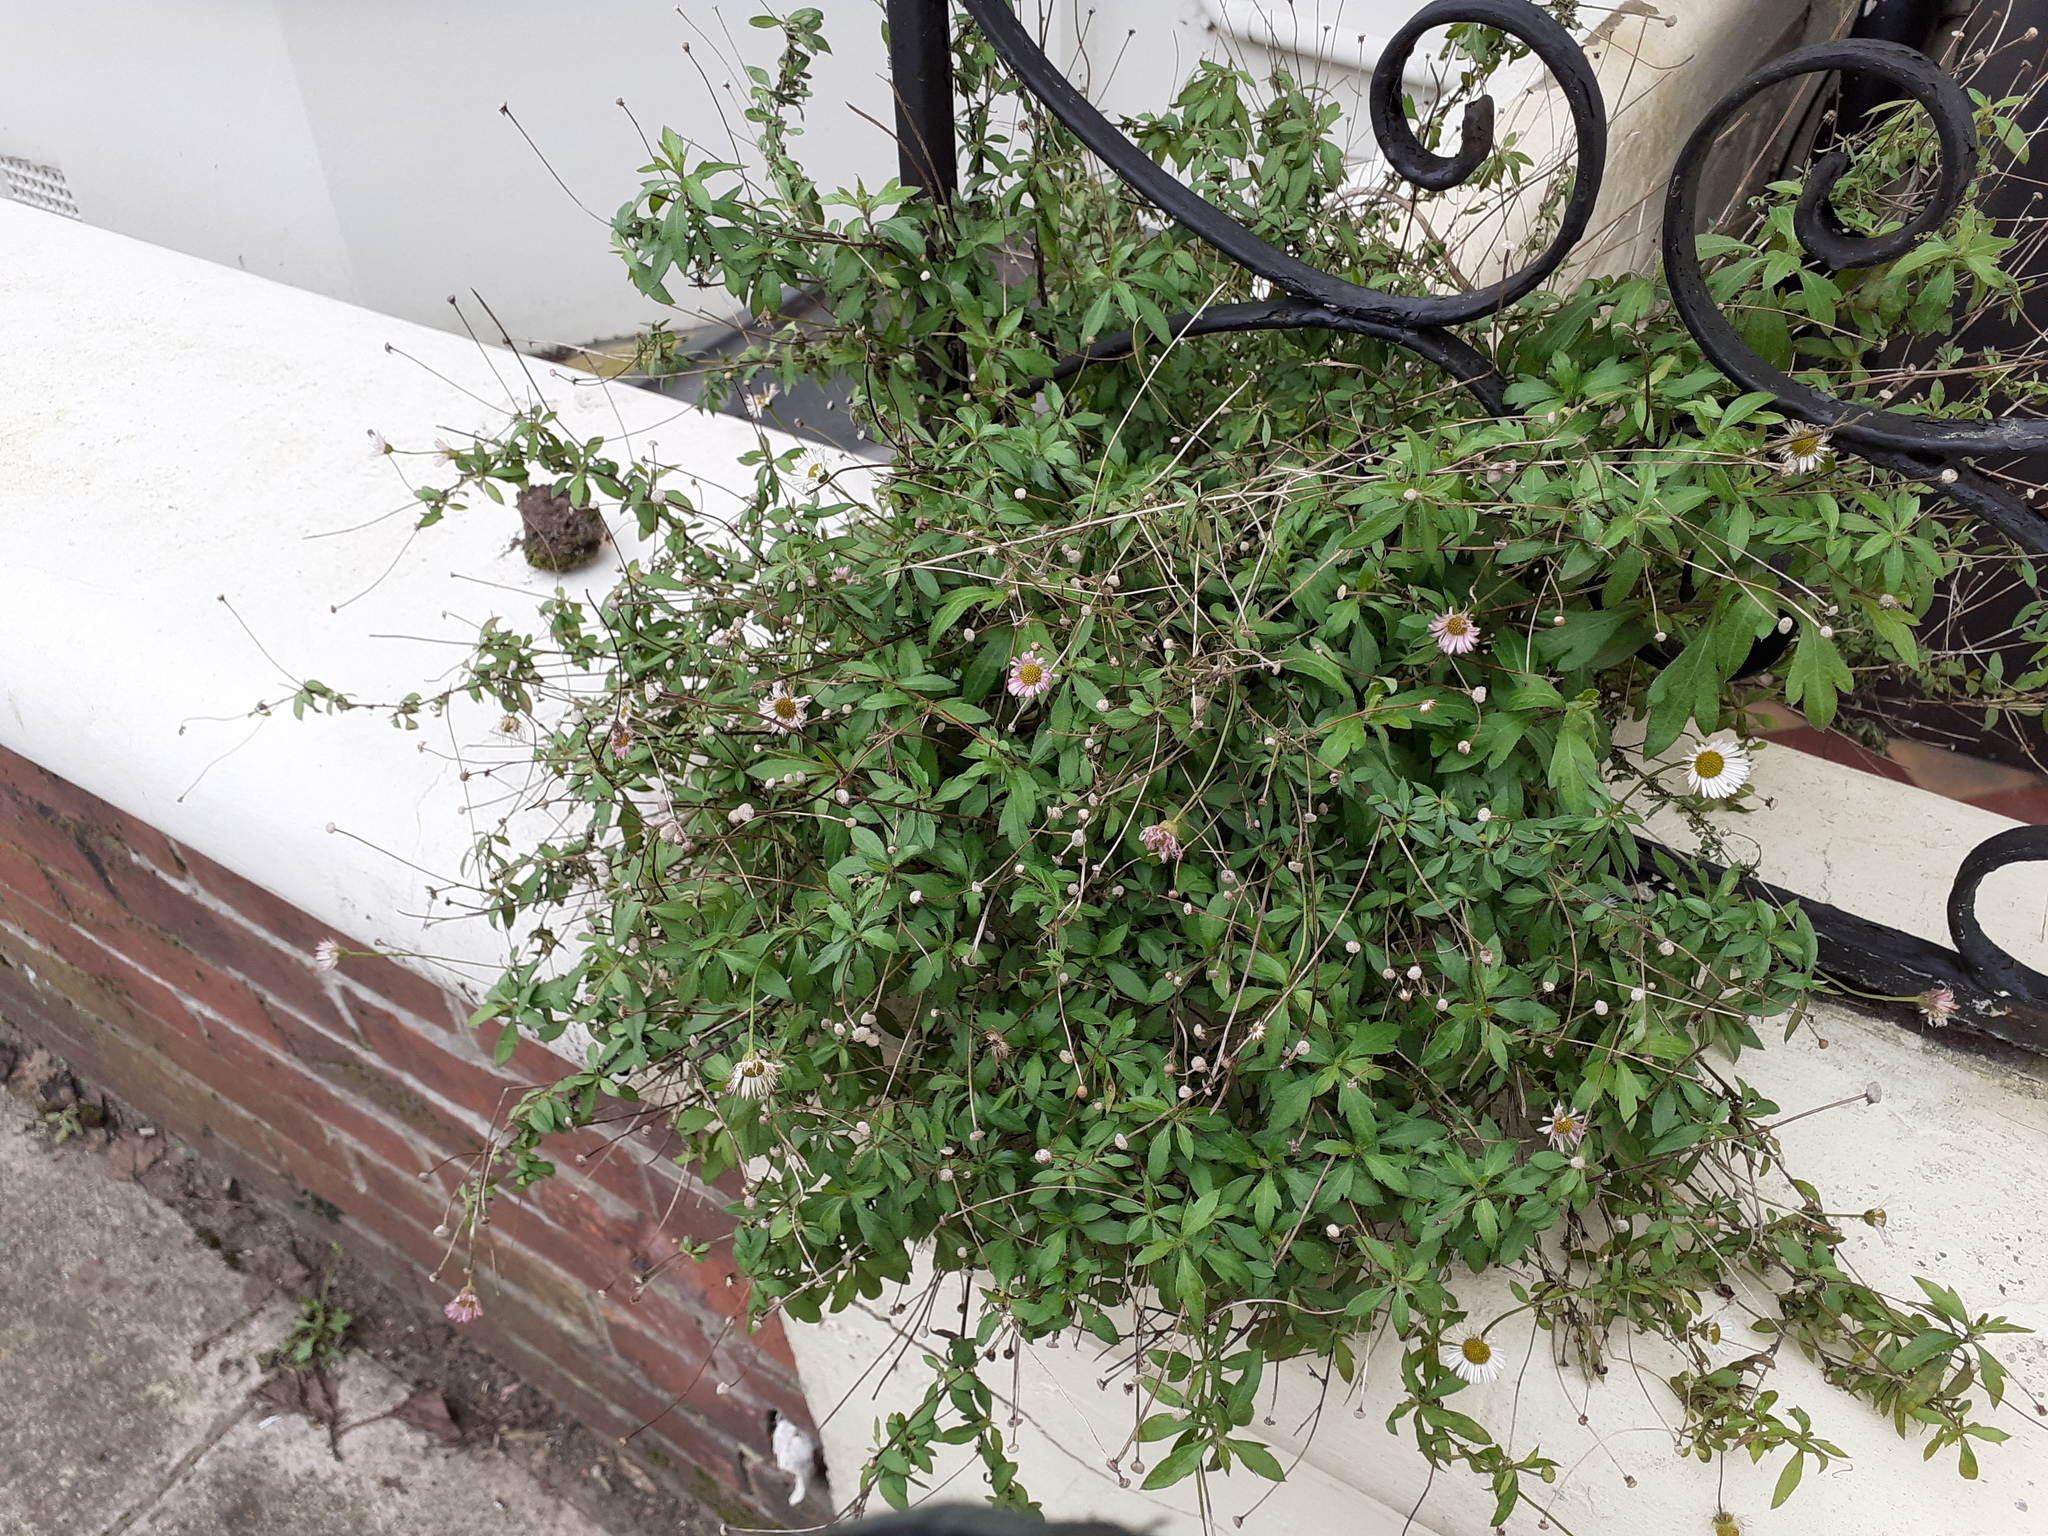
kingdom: Plantae
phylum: Tracheophyta
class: Magnoliopsida
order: Asterales
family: Asteraceae
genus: Erigeron
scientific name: Erigeron karvinskianus
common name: Mexican fleabane
